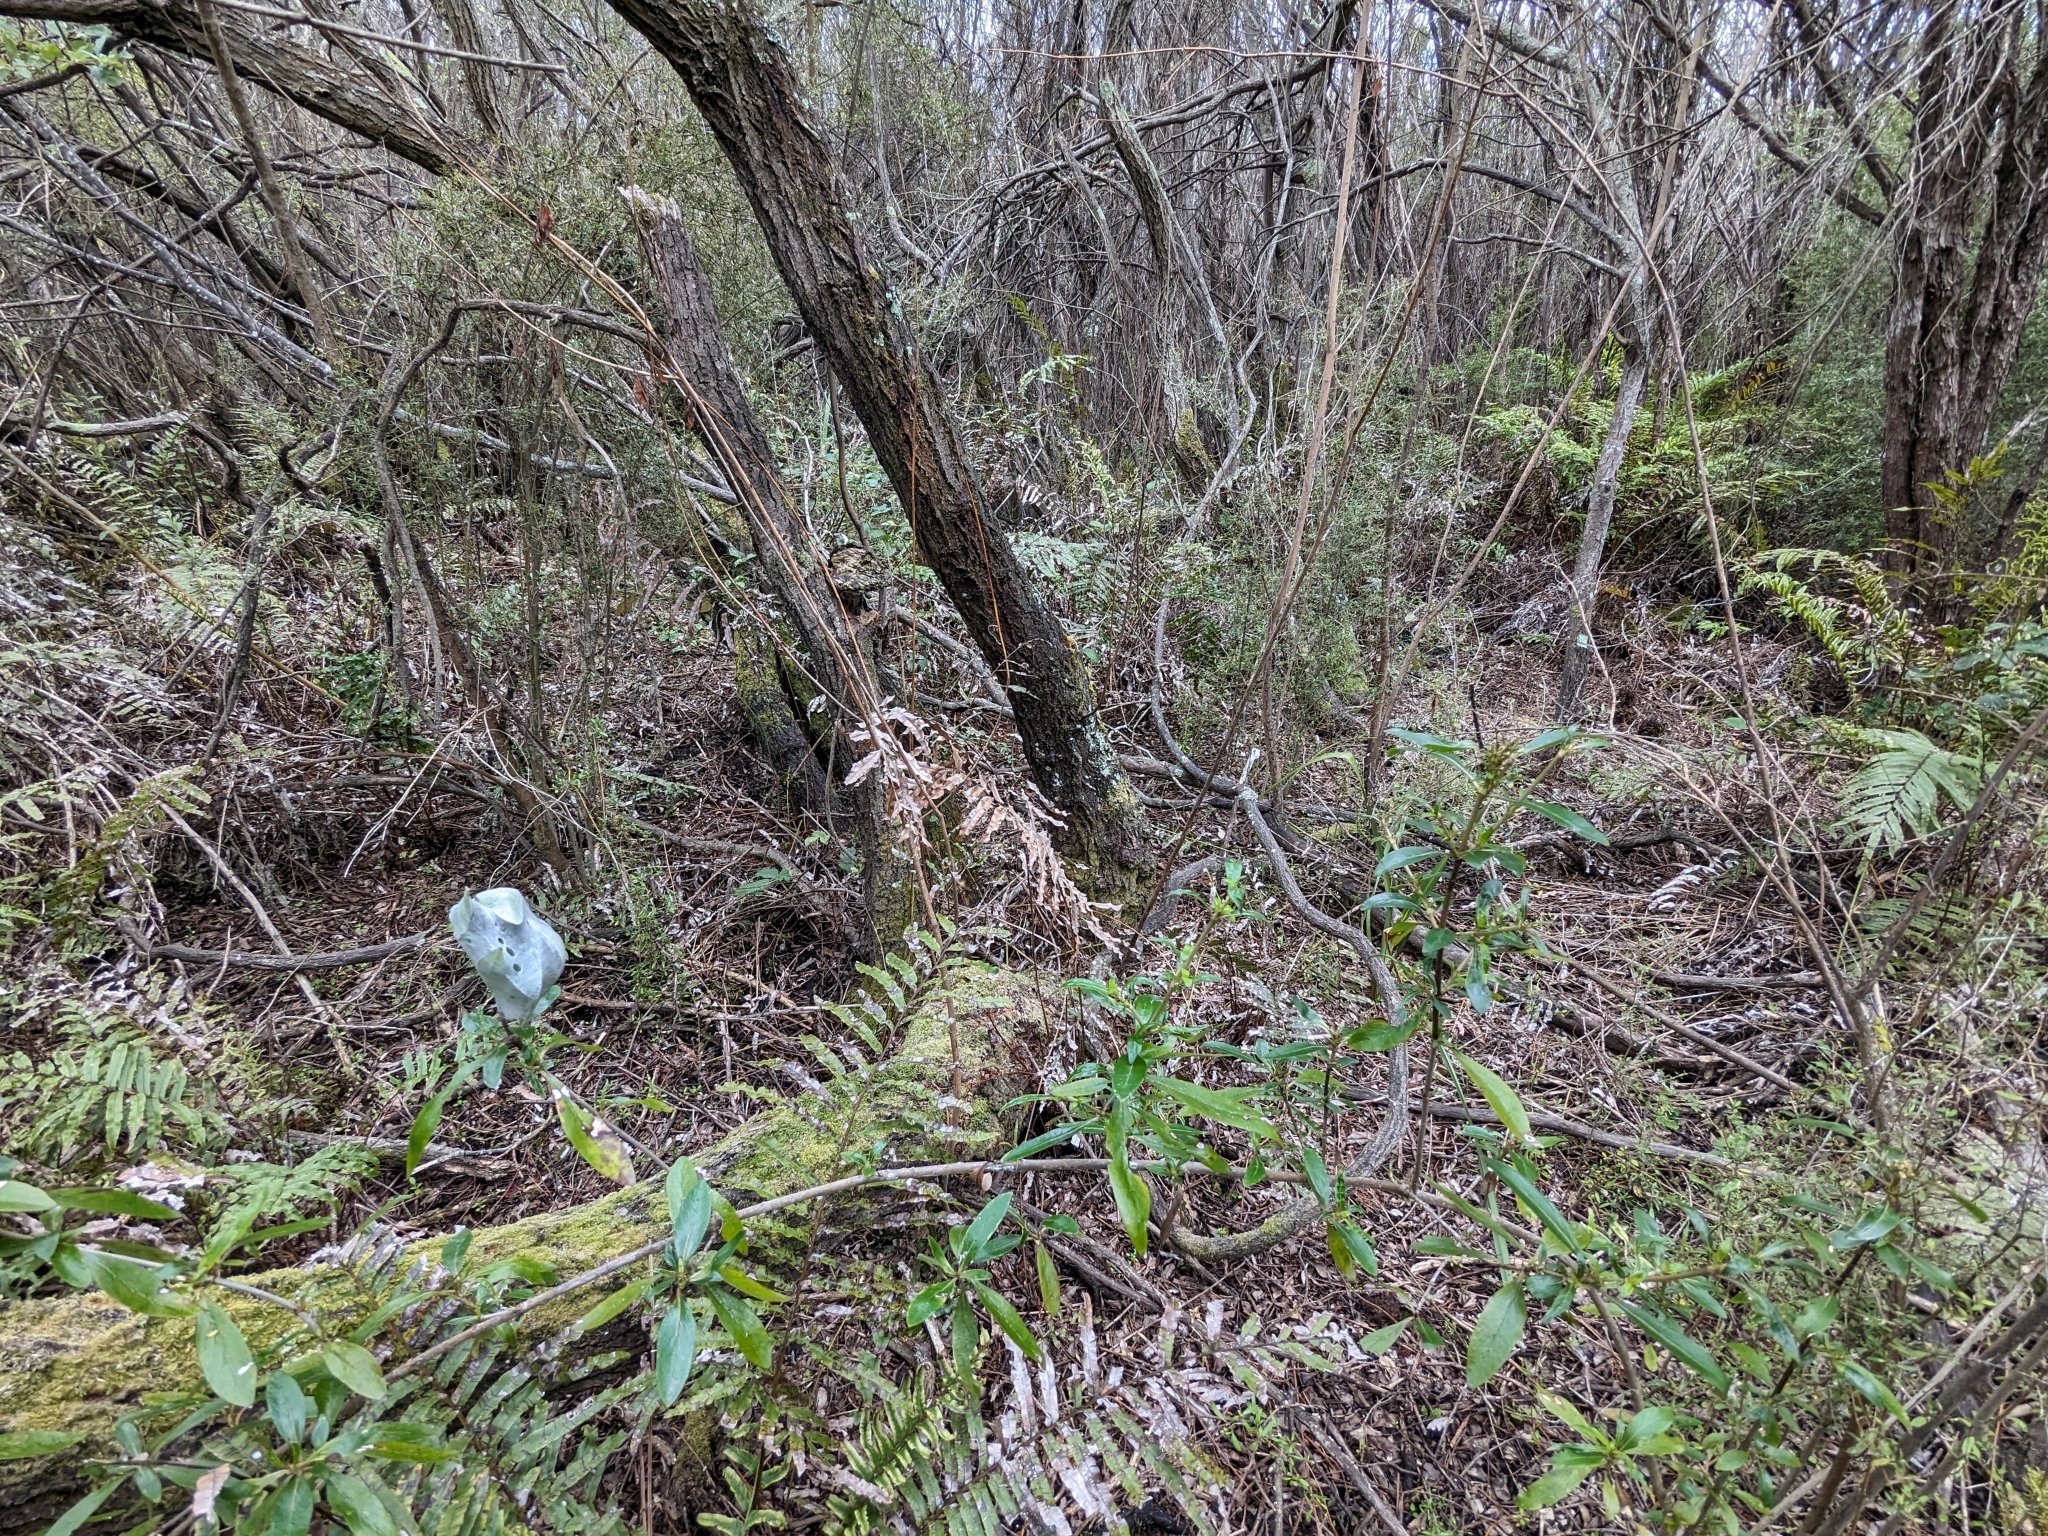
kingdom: Animalia
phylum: Arthropoda
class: Arachnida
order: Araneae
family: Pisauridae
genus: Dolomedes
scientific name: Dolomedes minor
